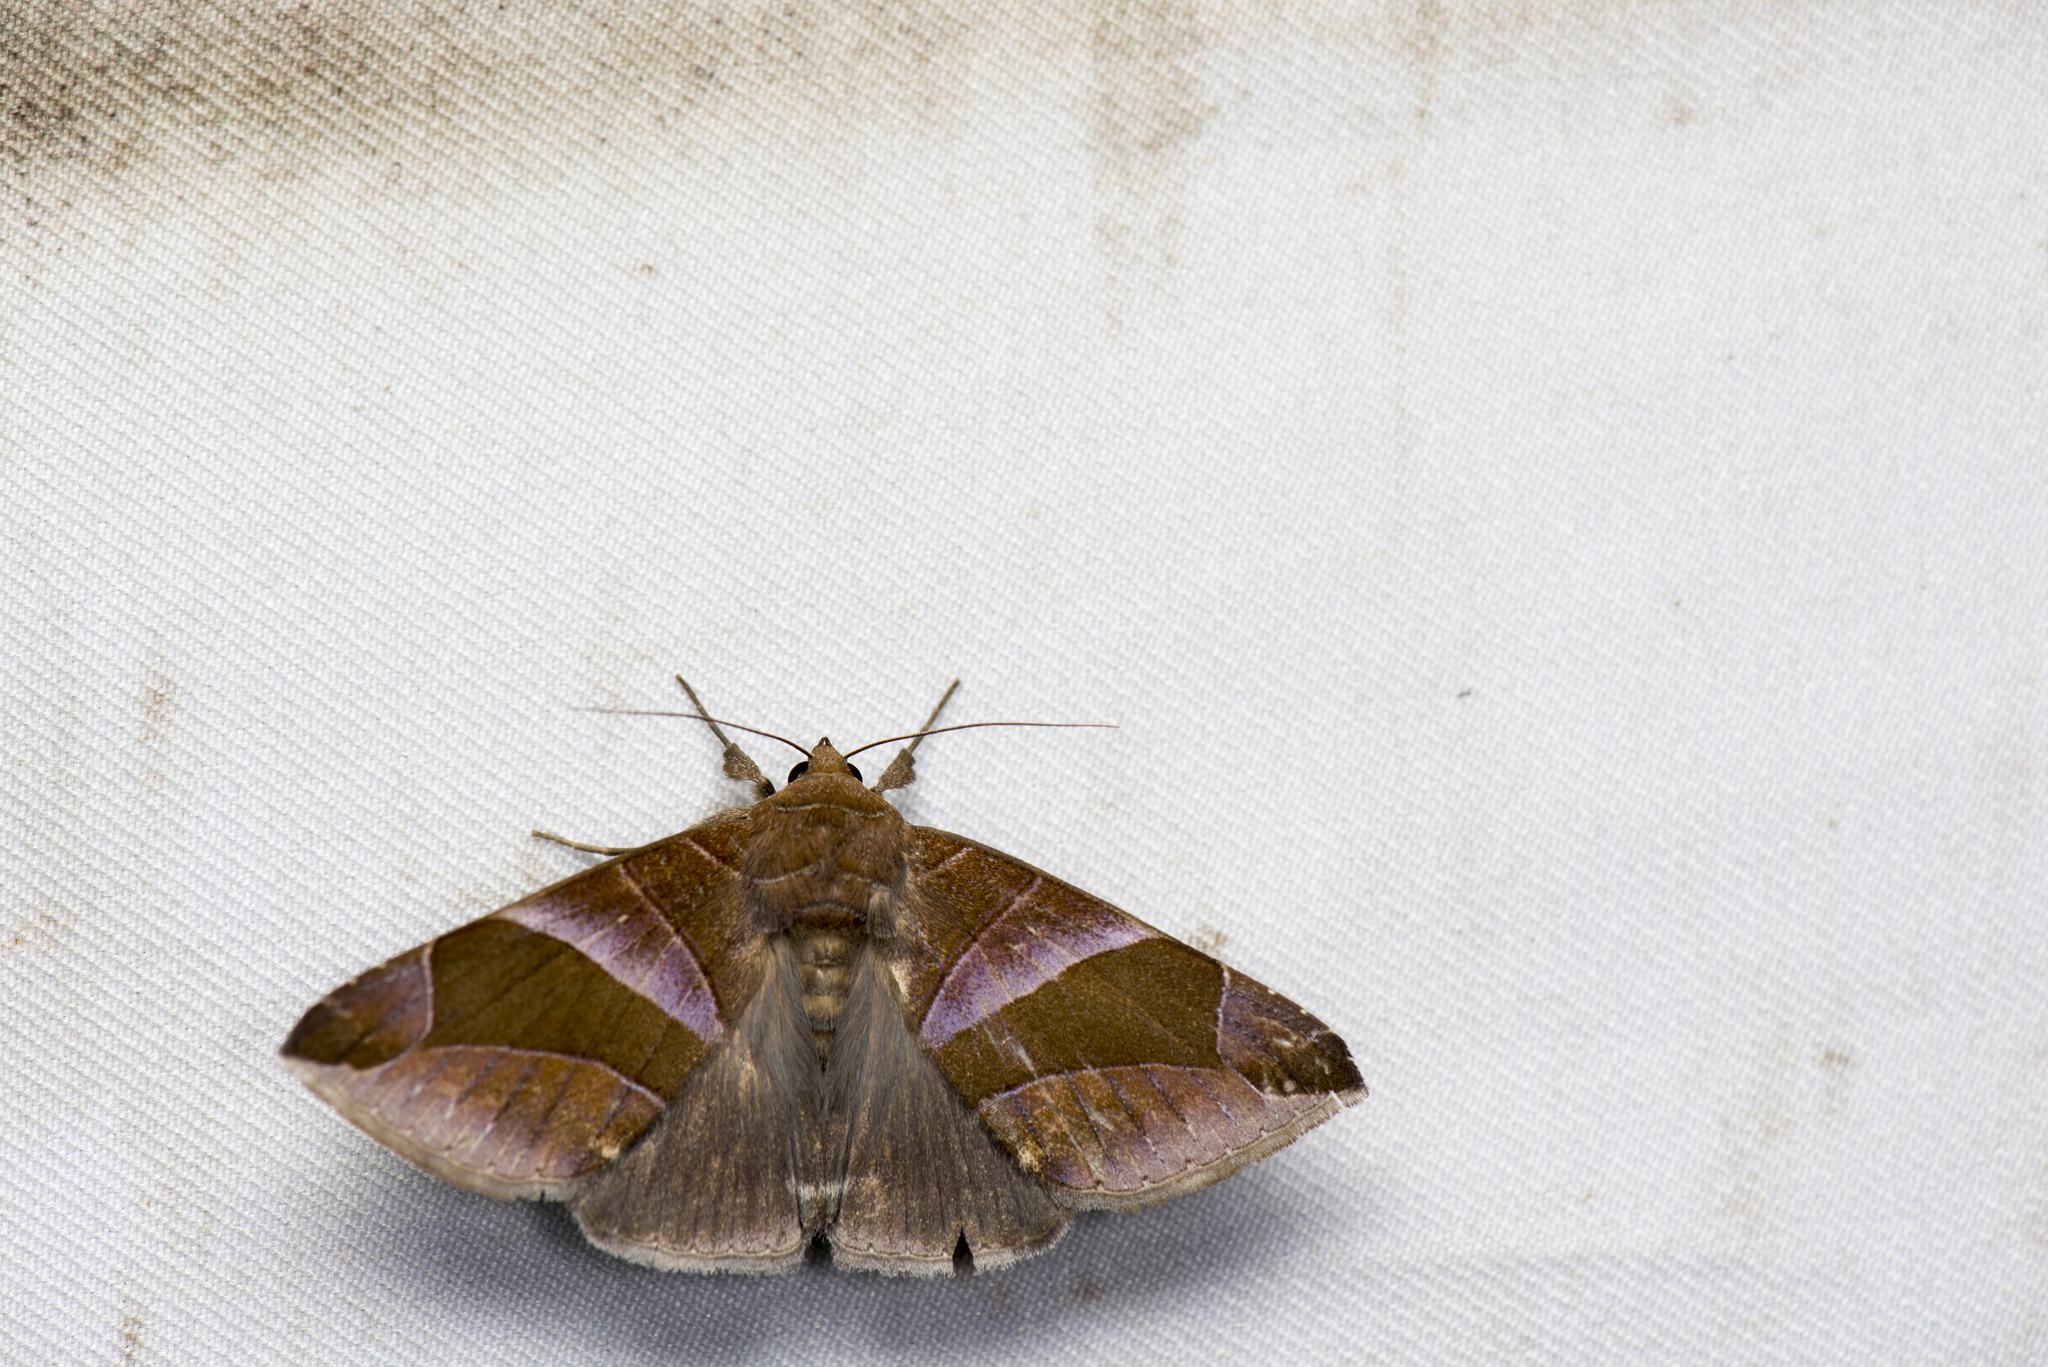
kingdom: Animalia
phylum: Arthropoda
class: Insecta
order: Lepidoptera
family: Erebidae
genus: Bastilla
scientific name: Bastilla acuta
